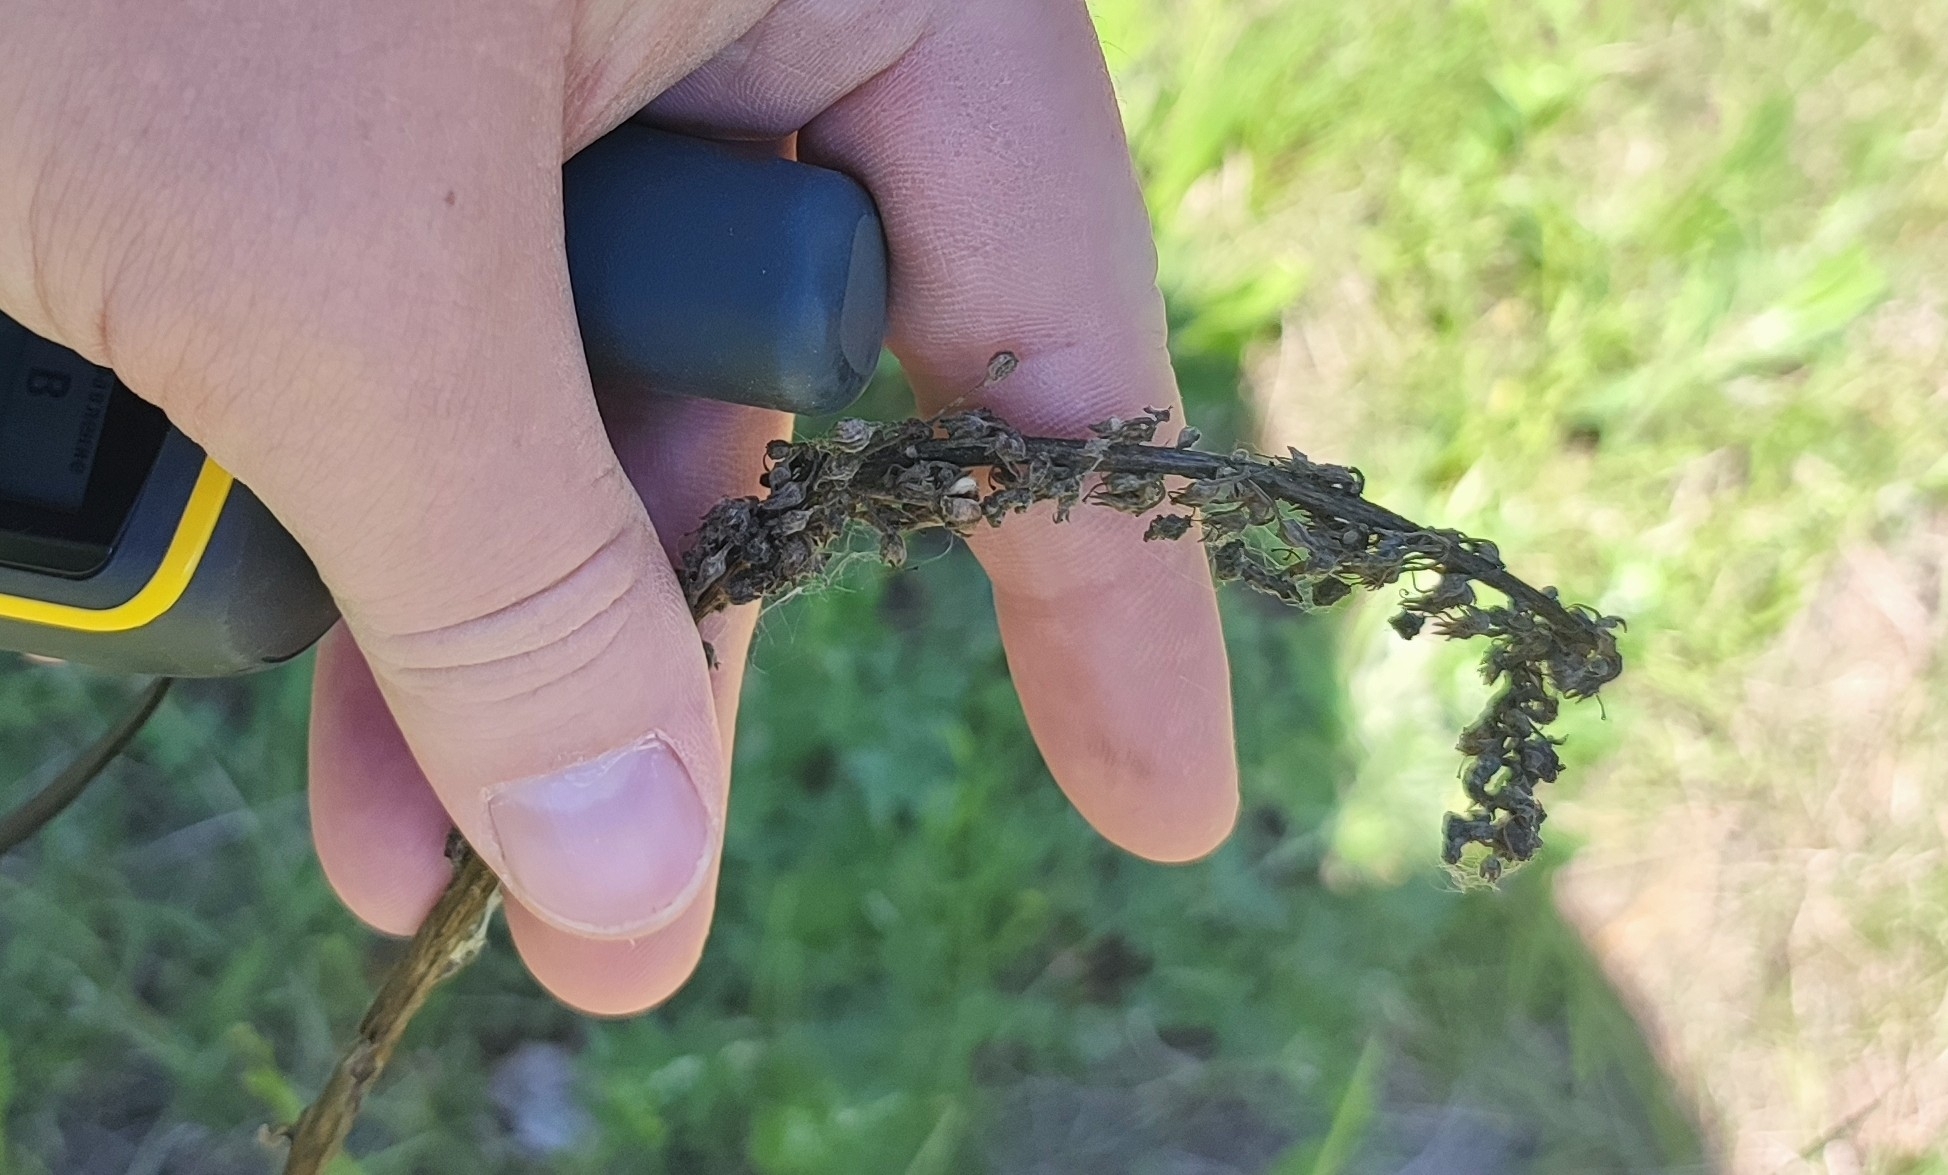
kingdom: Plantae
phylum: Tracheophyta
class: Magnoliopsida
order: Lamiales
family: Scrophulariaceae
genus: Verbascum
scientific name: Verbascum nigrum
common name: Dark mullein
